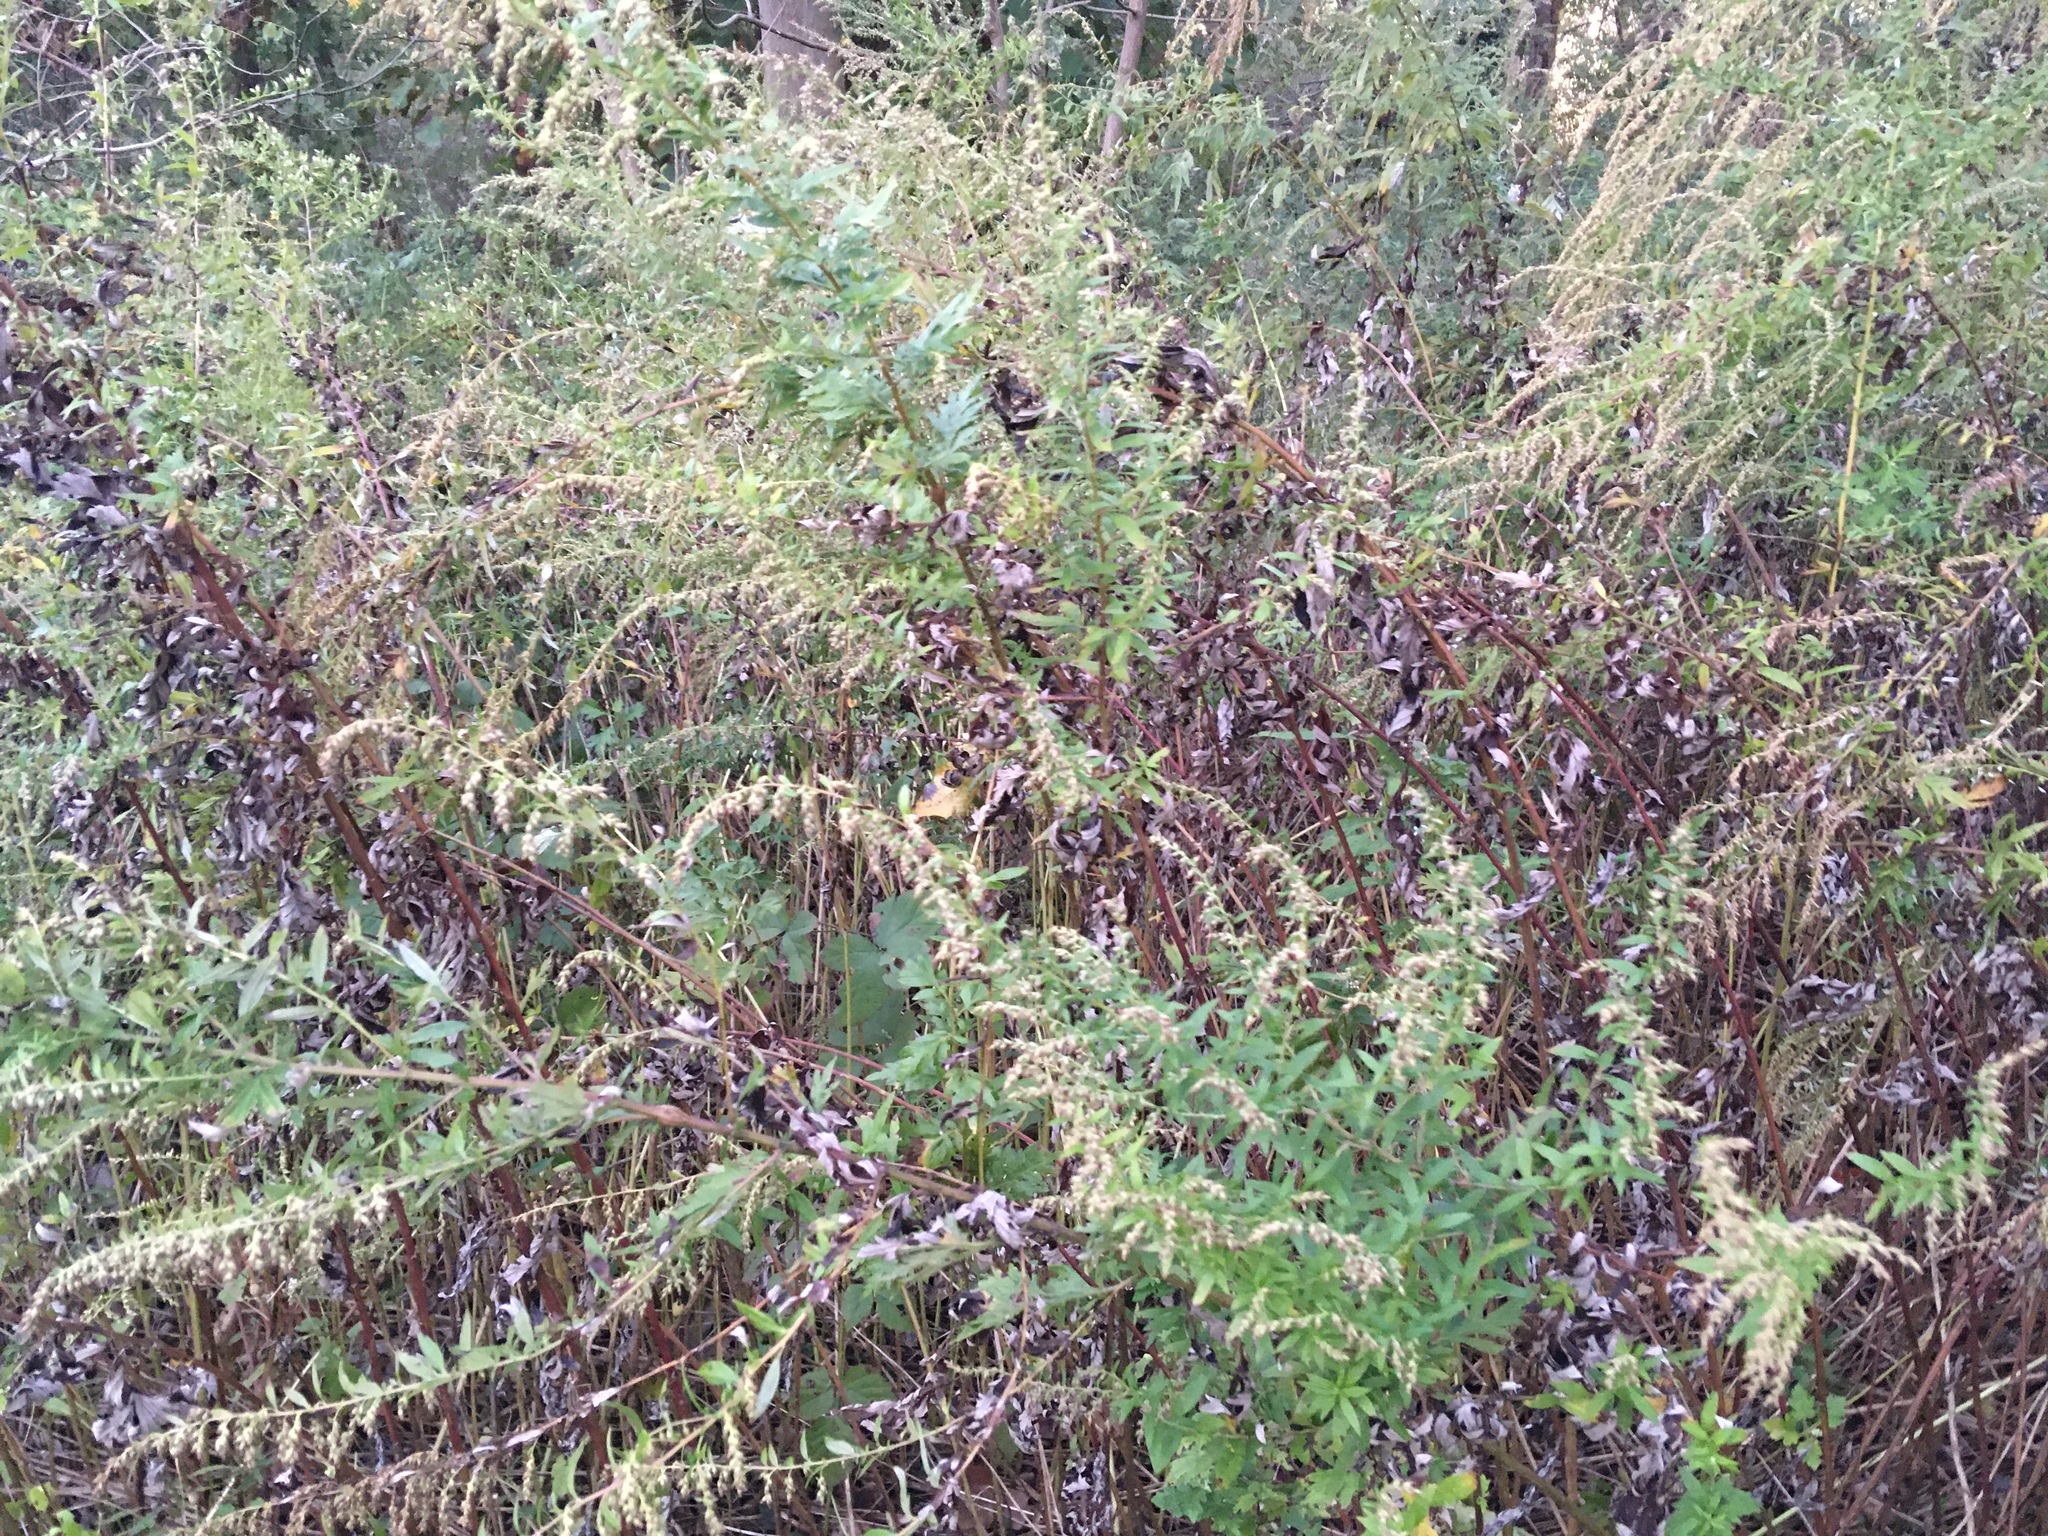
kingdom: Plantae
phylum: Tracheophyta
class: Magnoliopsida
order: Asterales
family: Asteraceae
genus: Artemisia
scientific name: Artemisia vulgaris
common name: Mugwort
